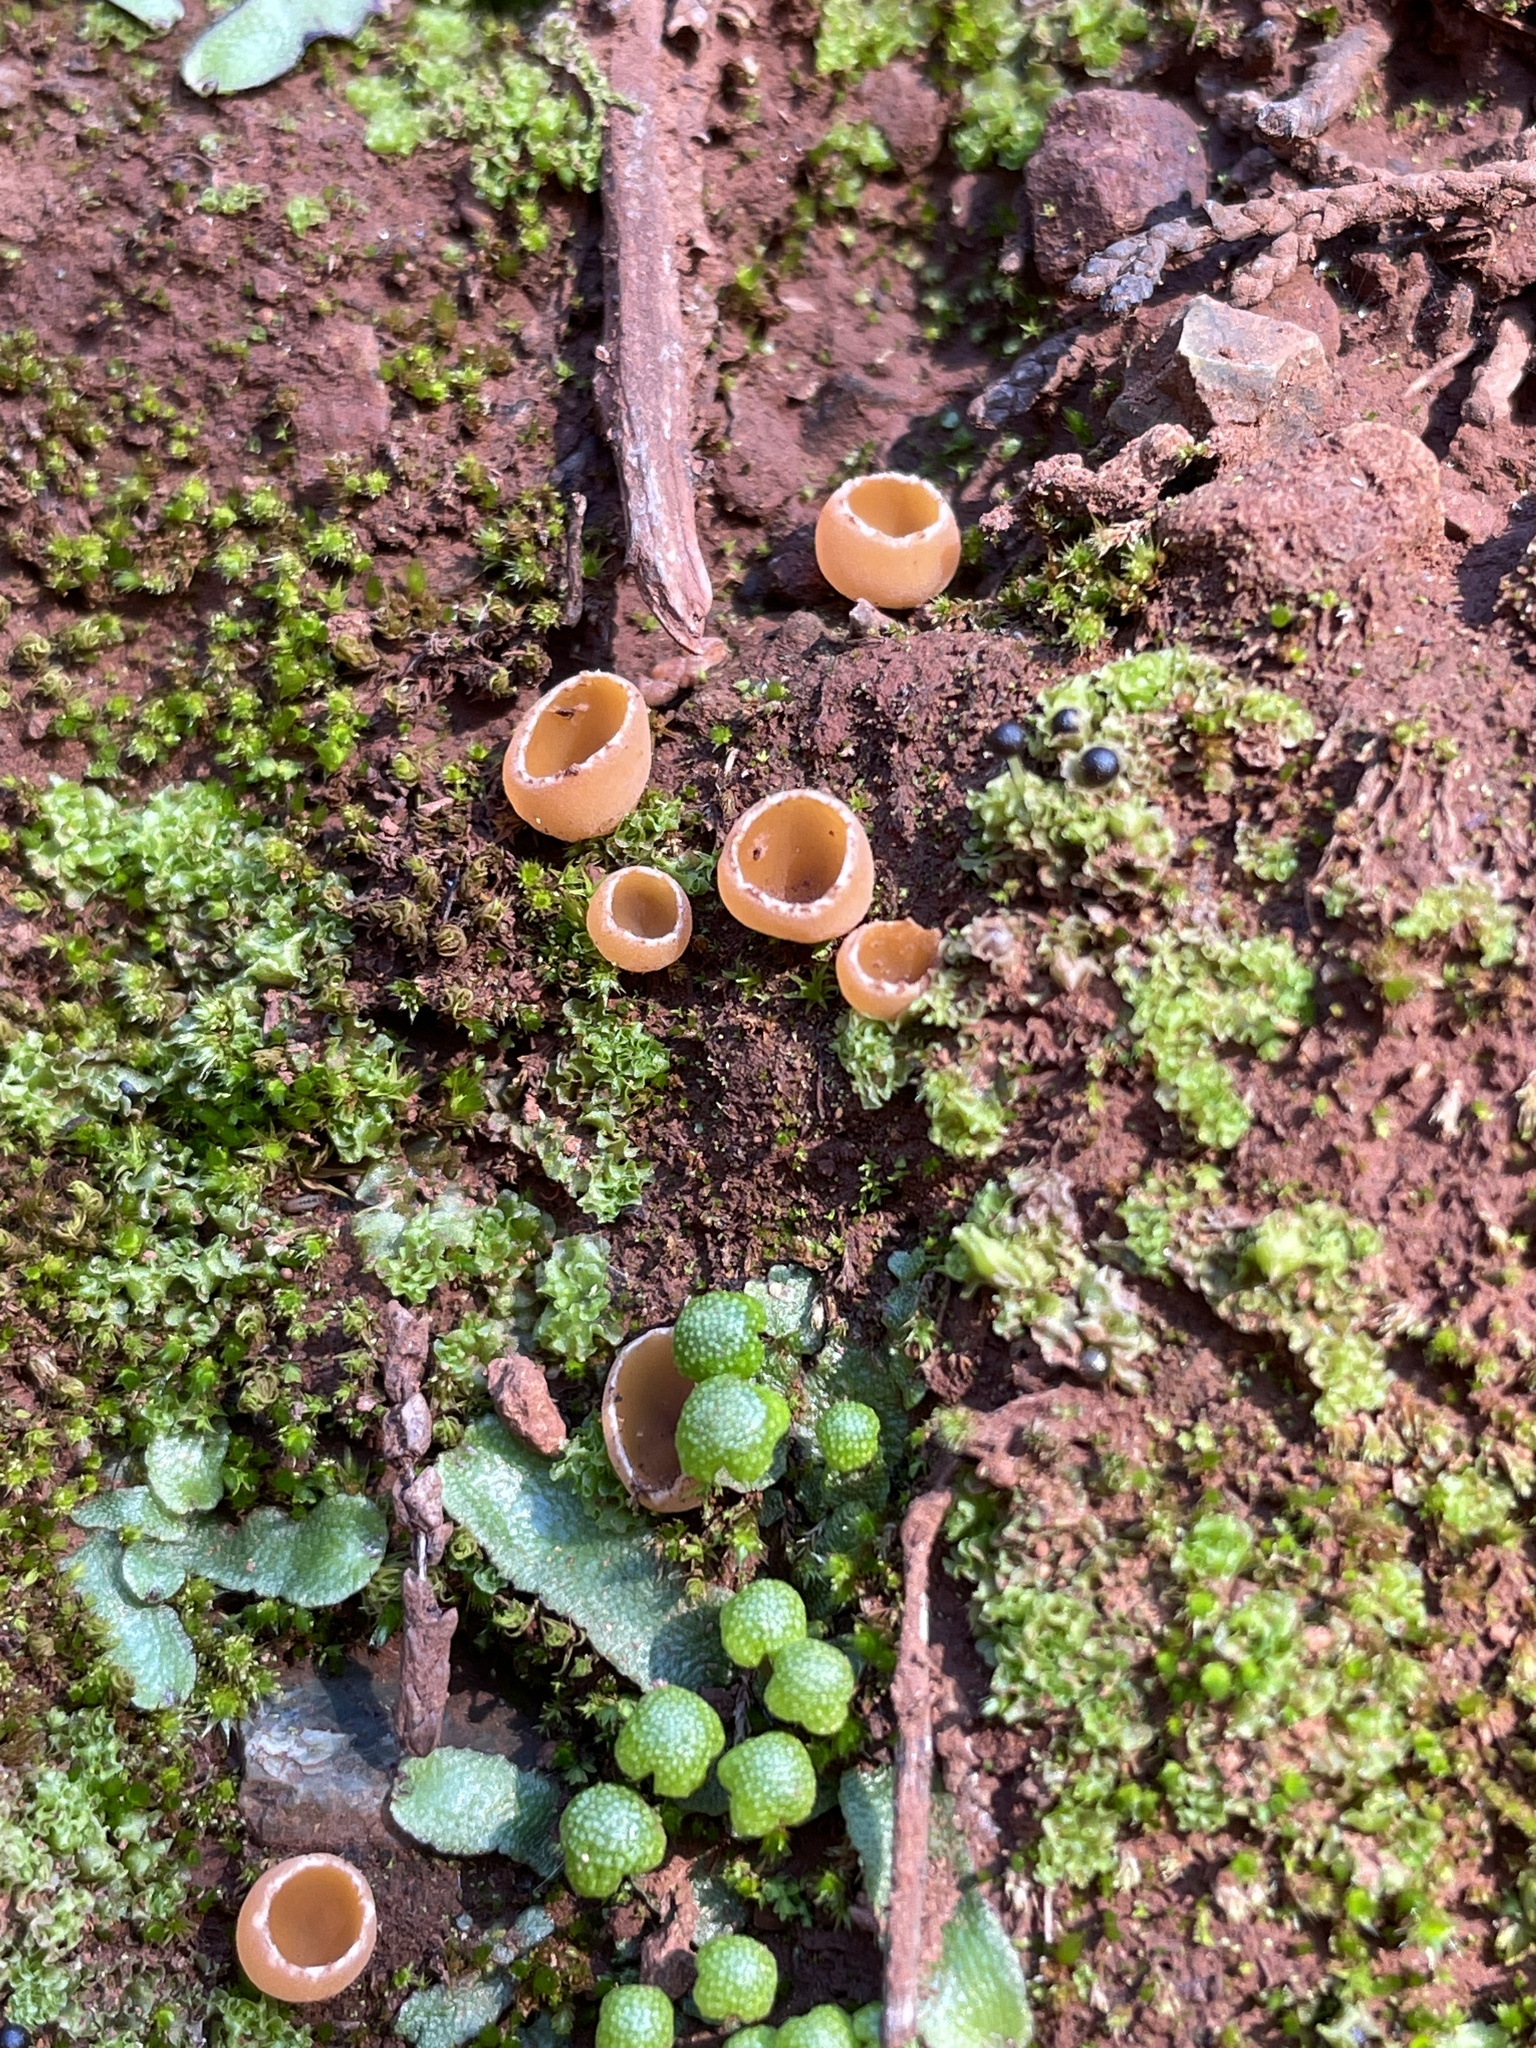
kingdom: Fungi
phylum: Ascomycota
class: Pezizomycetes
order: Pezizales
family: Pyronemataceae
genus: Geopyxis
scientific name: Geopyxis carbonaria
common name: Stalked bonfire cup
